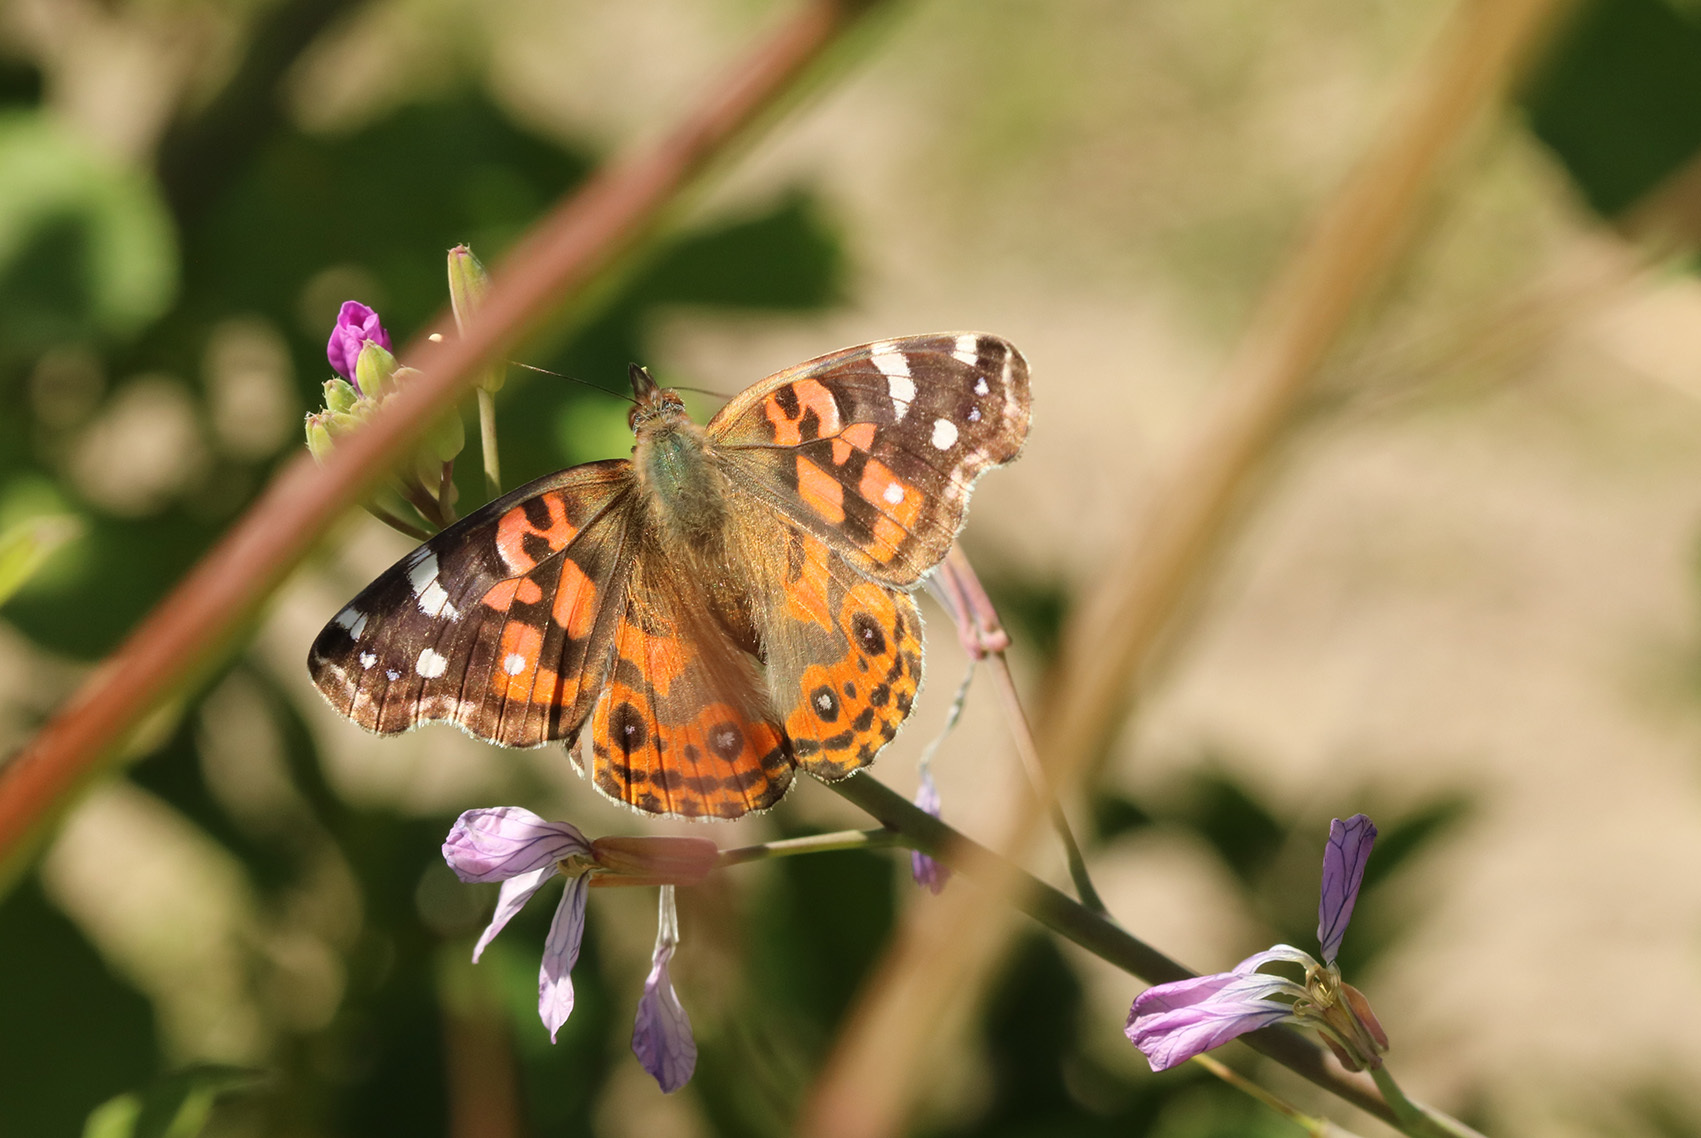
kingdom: Animalia
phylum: Arthropoda
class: Insecta
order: Lepidoptera
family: Nymphalidae
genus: Vanessa
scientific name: Vanessa braziliensis
